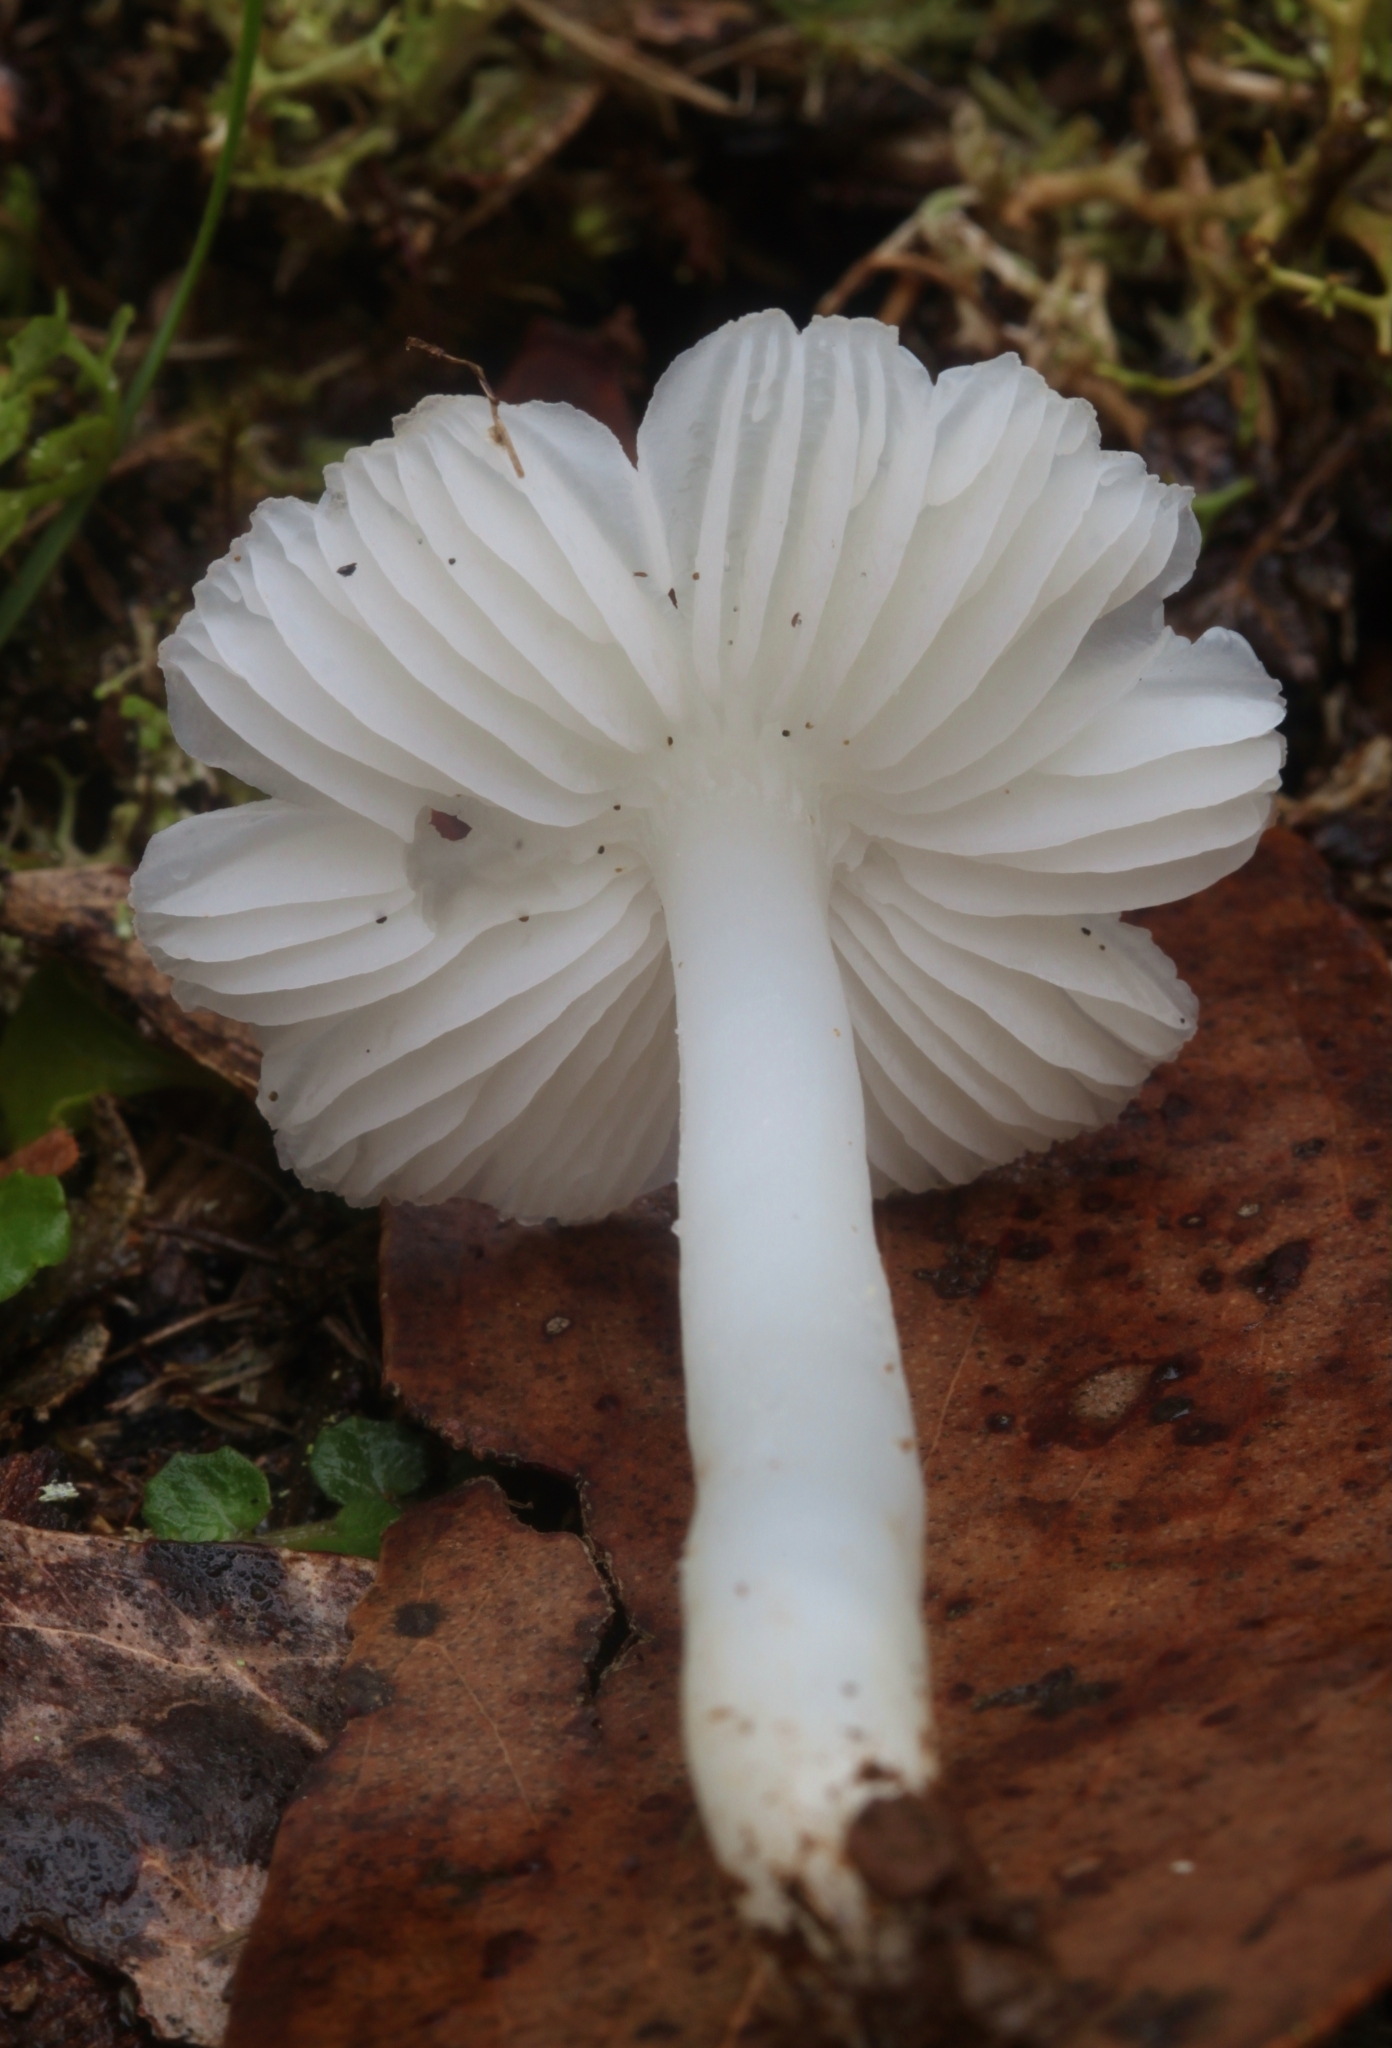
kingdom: Fungi
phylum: Basidiomycota
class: Agaricomycetes
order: Agaricales
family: Hygrophoraceae
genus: Humidicutis
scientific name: Humidicutis mavis
